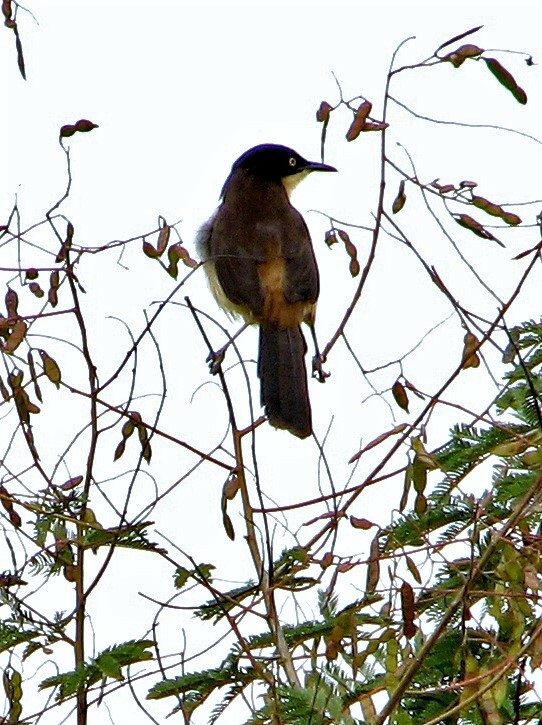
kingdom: Animalia
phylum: Chordata
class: Aves
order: Passeriformes
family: Donacobiidae
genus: Donacobius
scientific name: Donacobius atricapilla
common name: Black-capped donacobius
